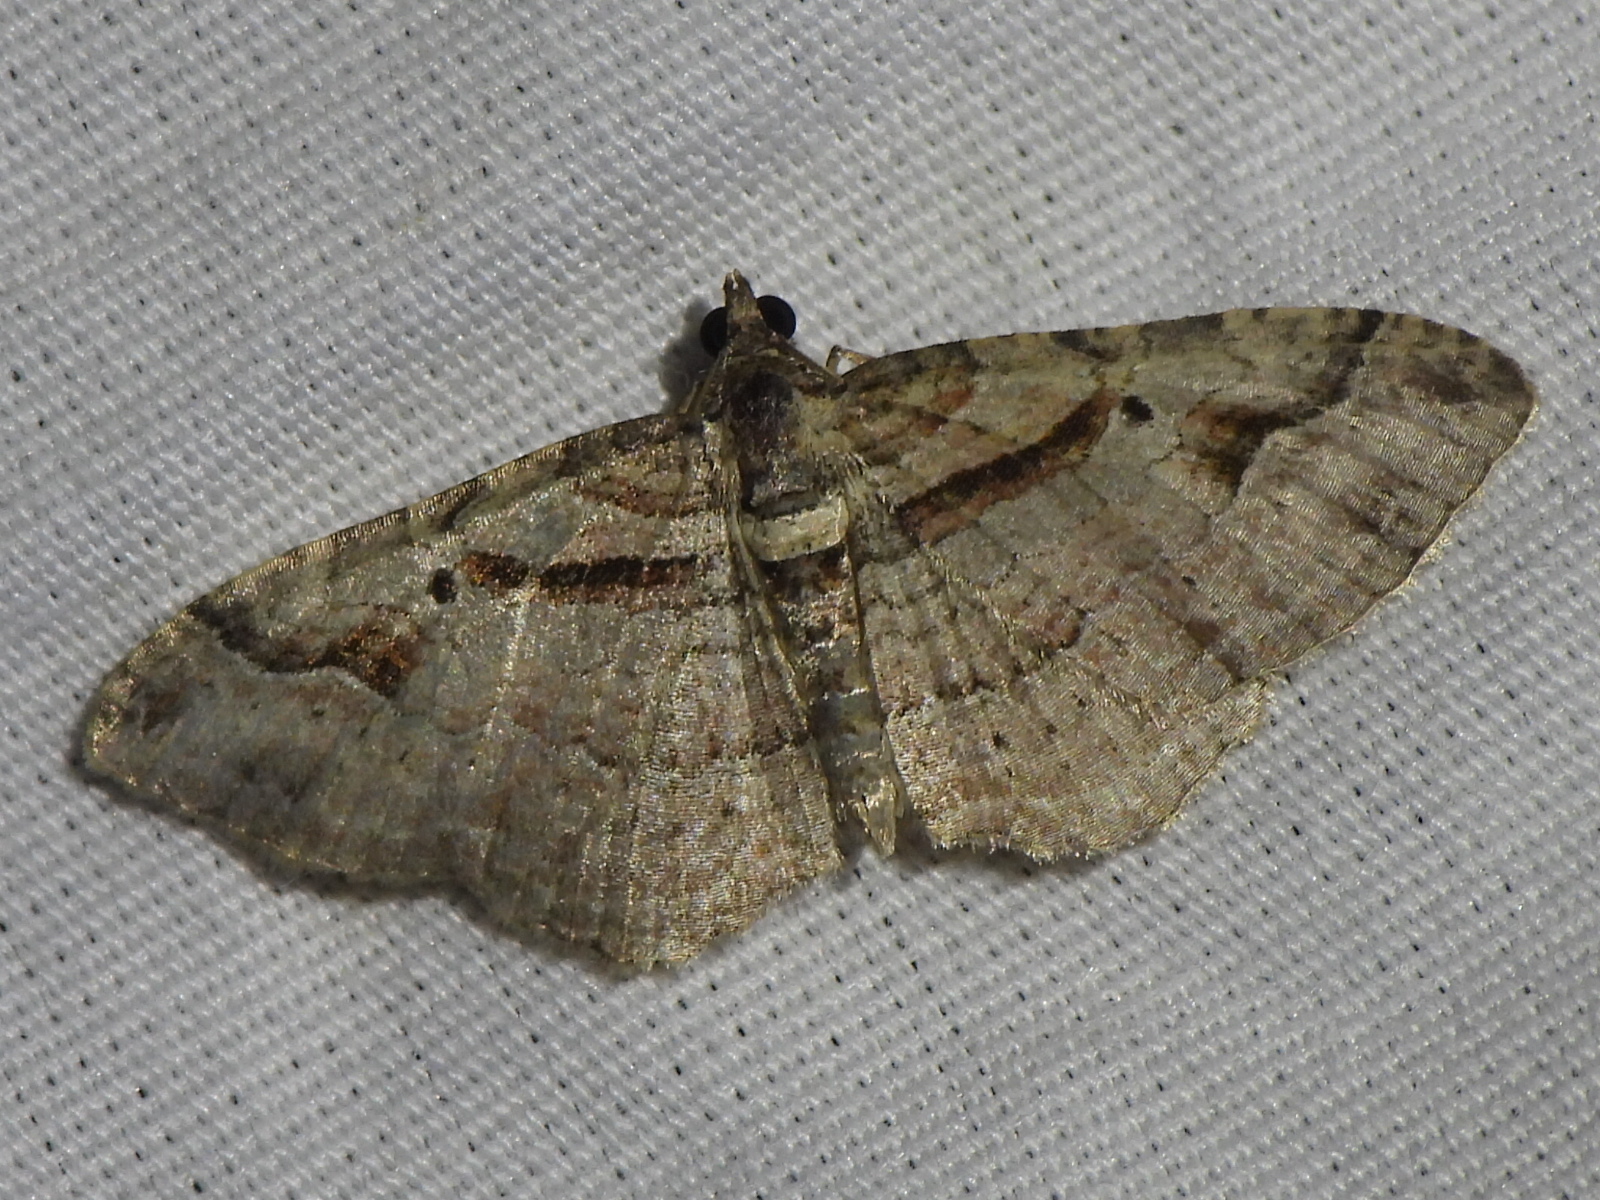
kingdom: Animalia
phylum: Arthropoda
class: Insecta
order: Lepidoptera
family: Geometridae
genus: Costaconvexa
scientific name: Costaconvexa centrostrigaria
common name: Bent-line carpet
